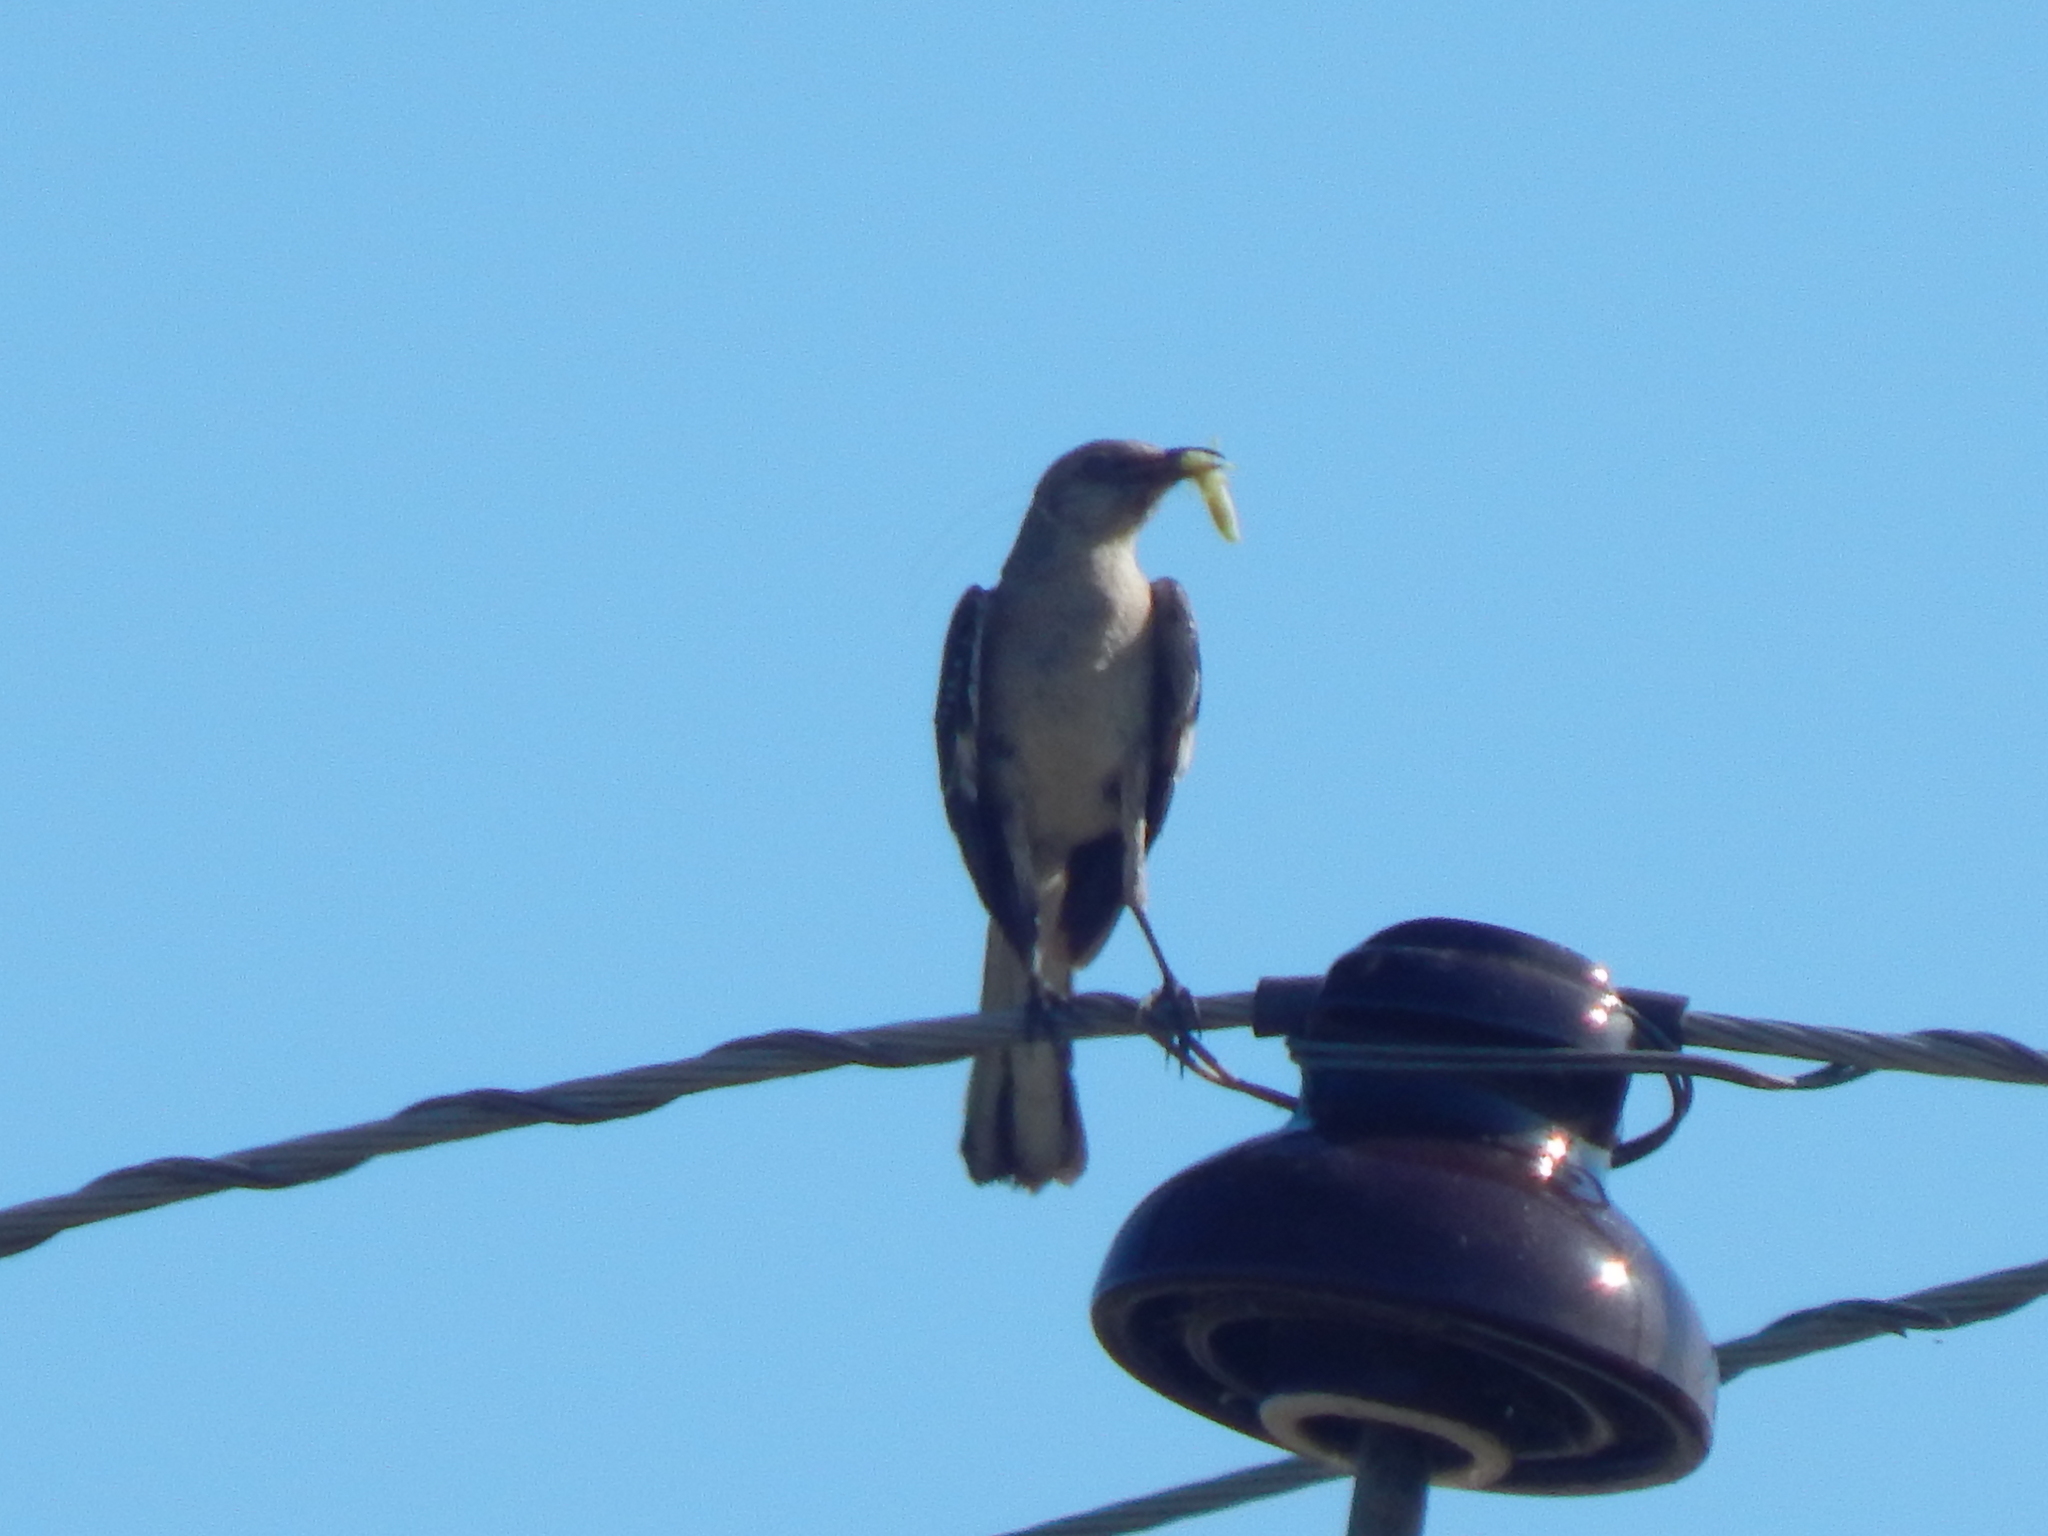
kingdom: Animalia
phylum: Chordata
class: Aves
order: Passeriformes
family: Mimidae
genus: Mimus
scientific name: Mimus polyglottos
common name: Northern mockingbird
